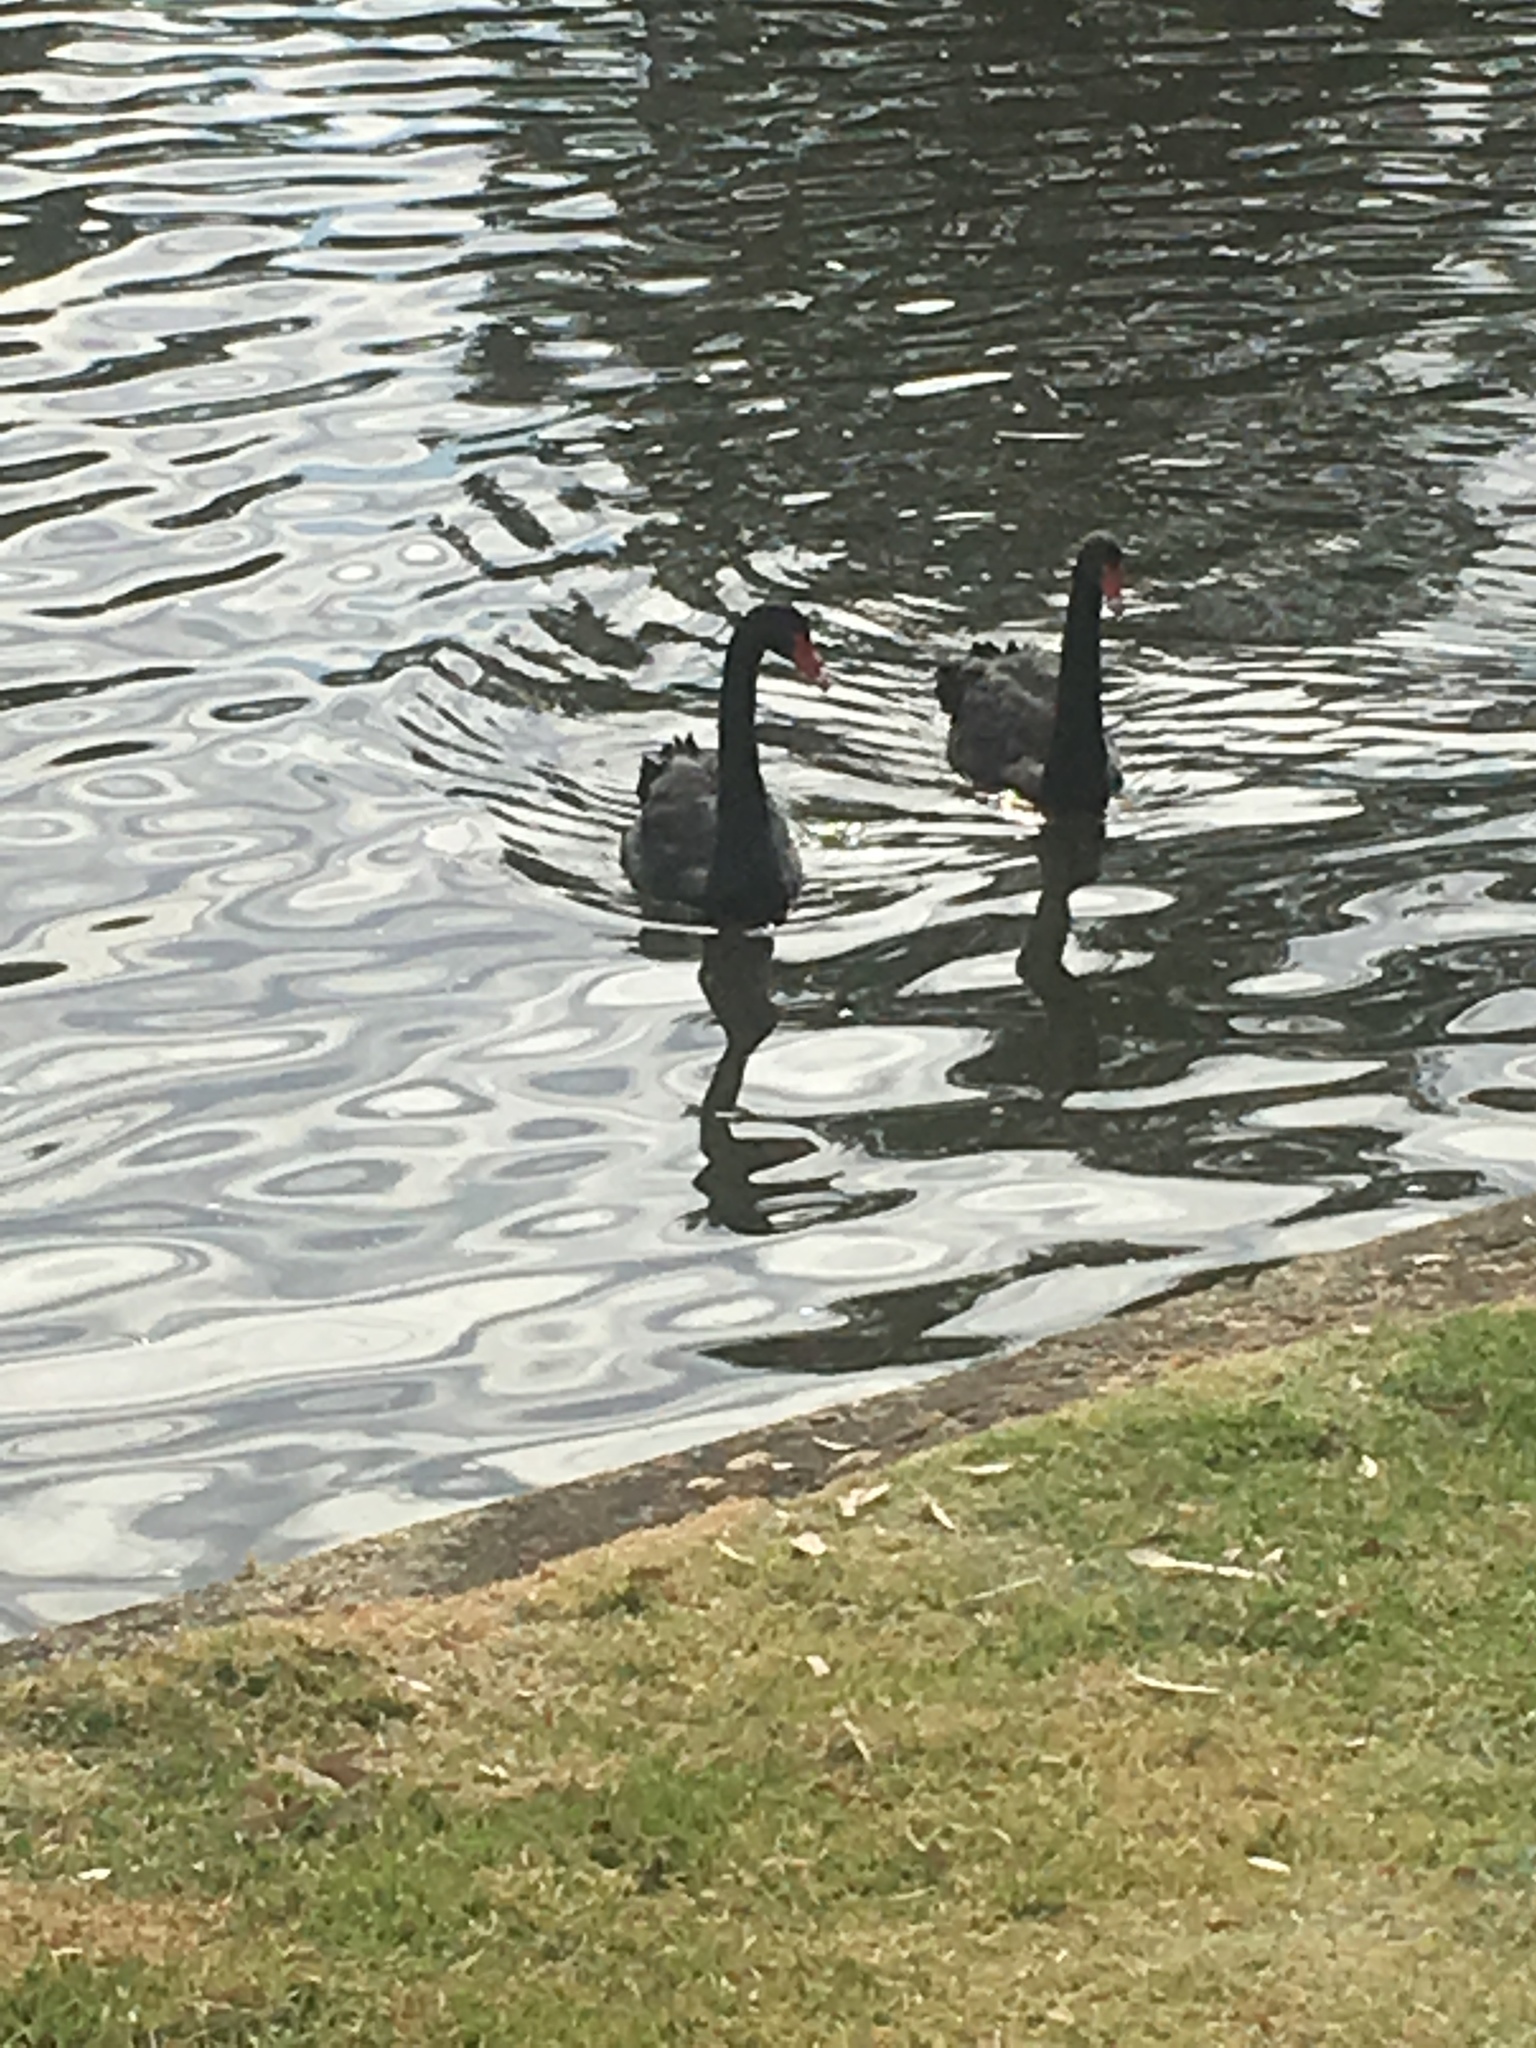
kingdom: Animalia
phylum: Chordata
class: Aves
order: Anseriformes
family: Anatidae
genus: Cygnus
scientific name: Cygnus atratus
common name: Black swan
